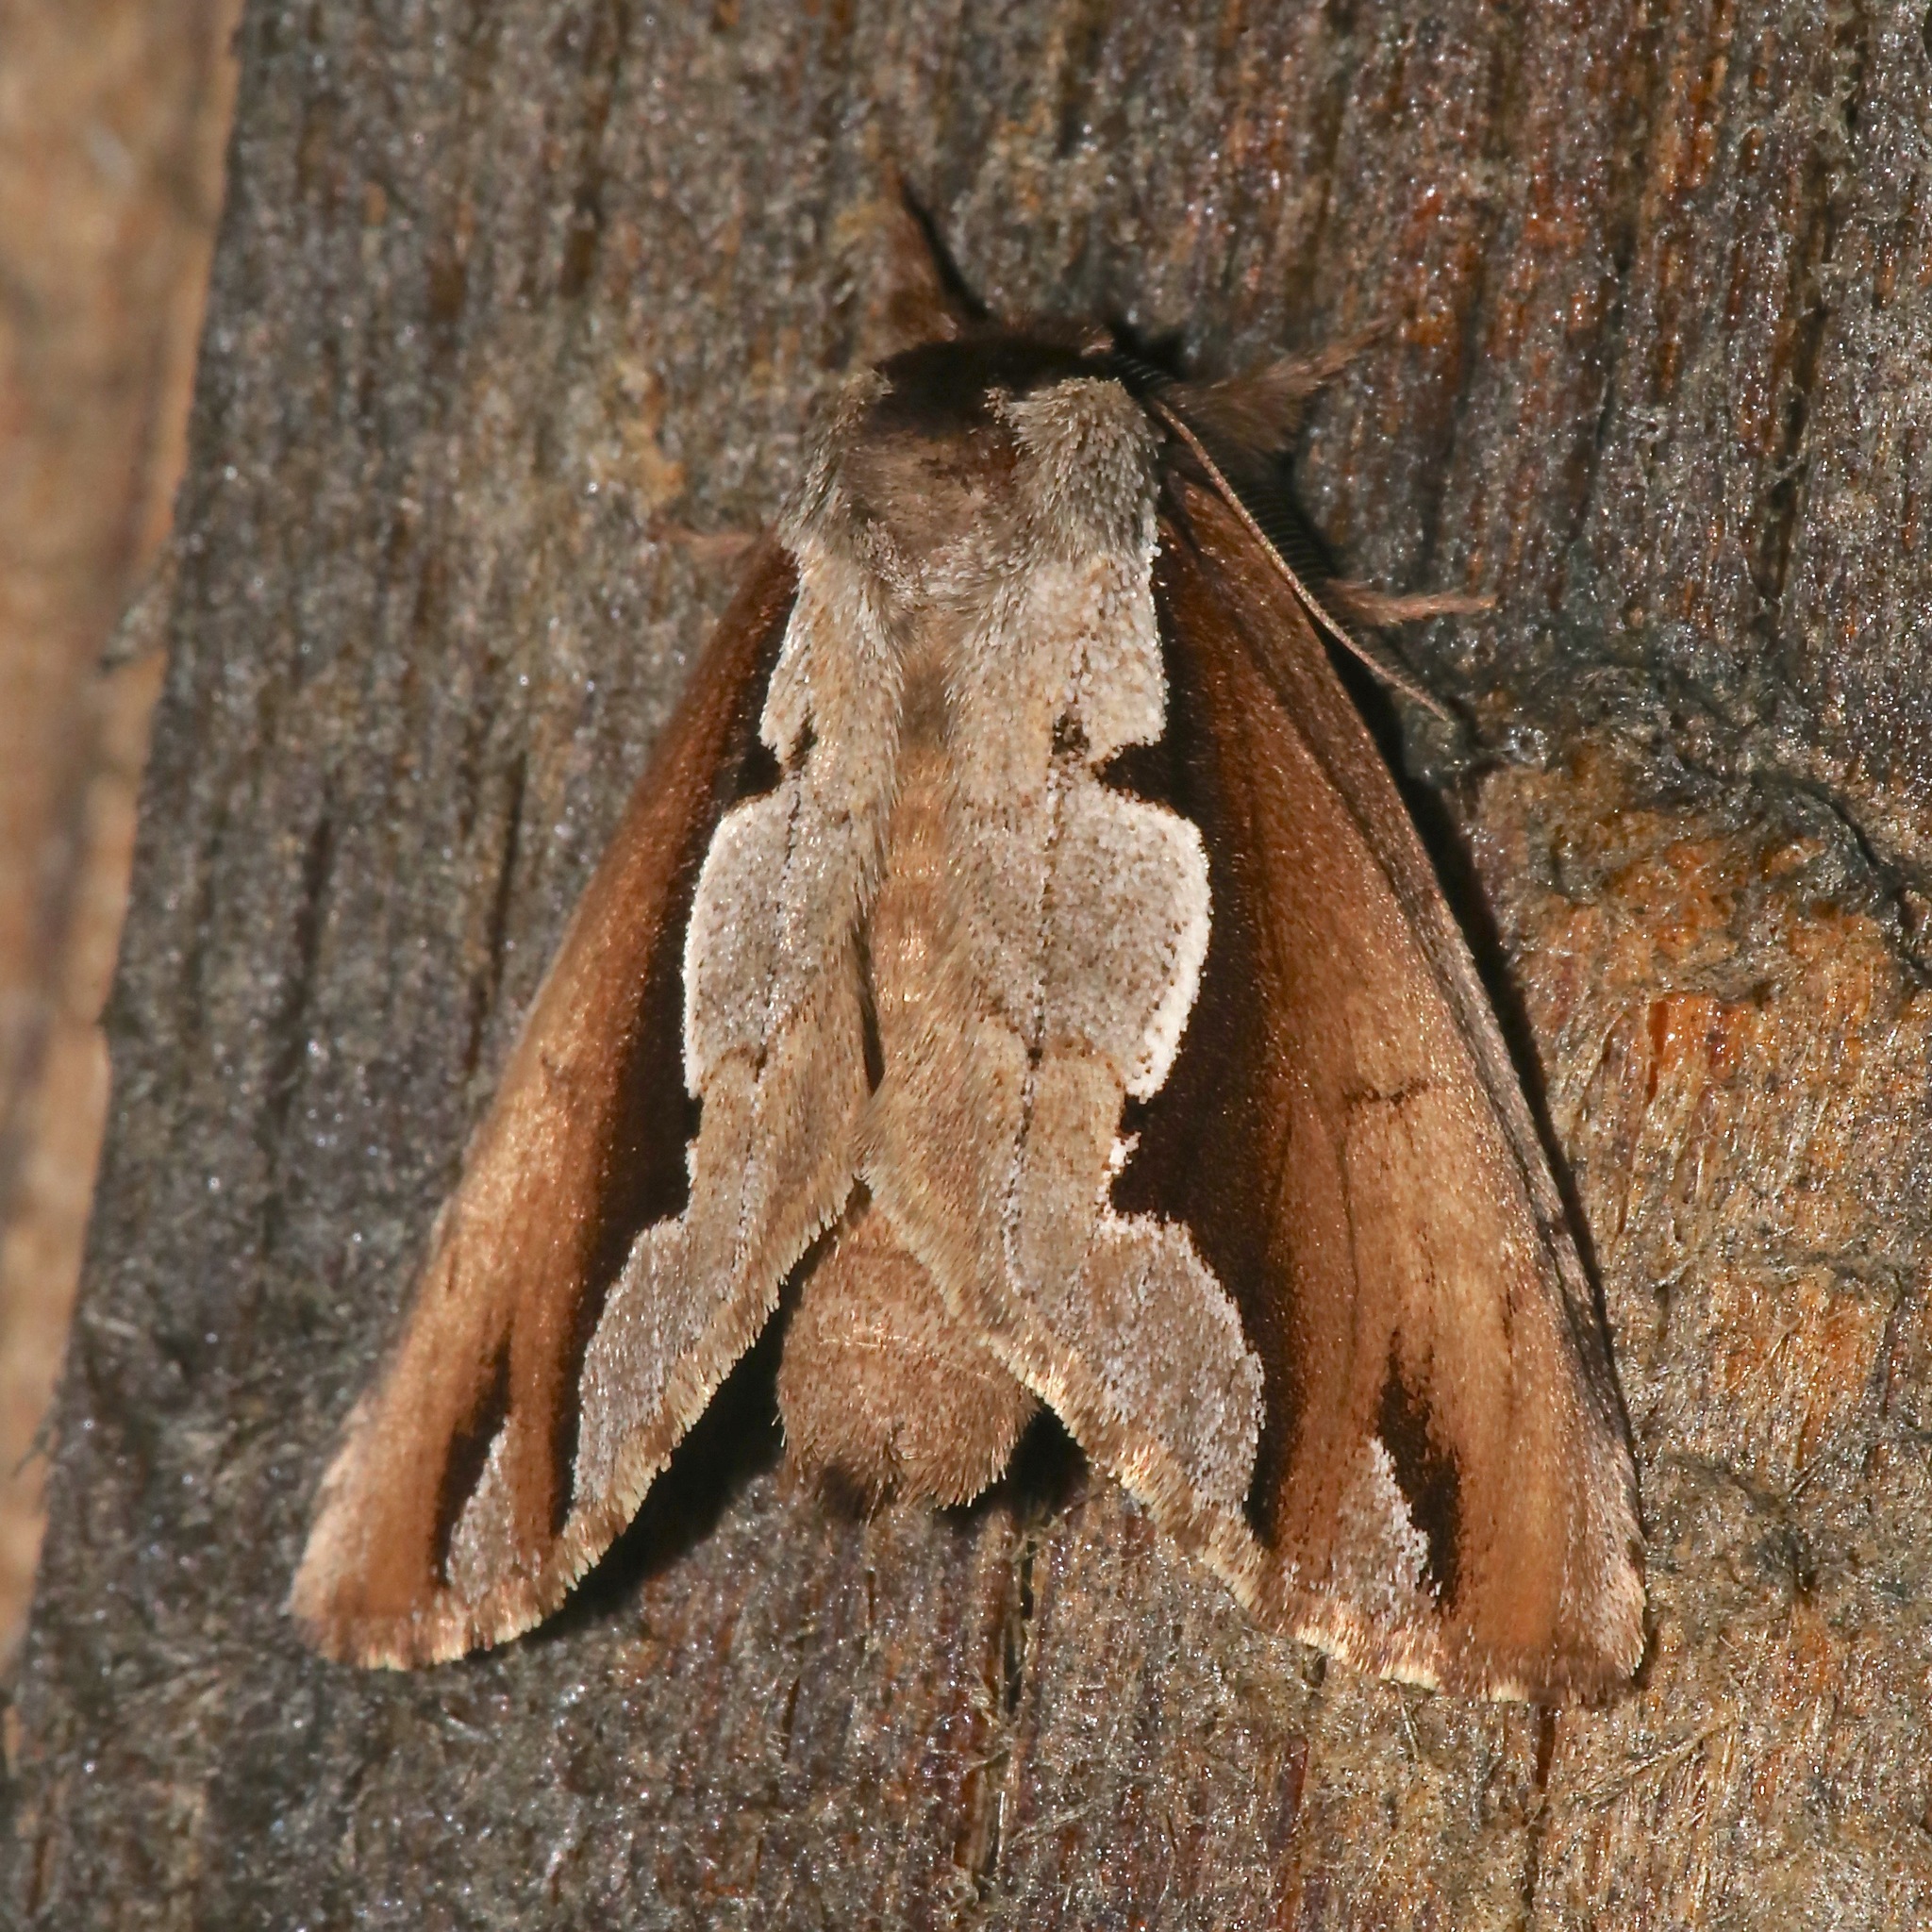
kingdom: Animalia
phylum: Arthropoda
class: Insecta
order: Lepidoptera
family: Notodontidae
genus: Nerice
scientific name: Nerice bidentata
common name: Double-toothed prominent
